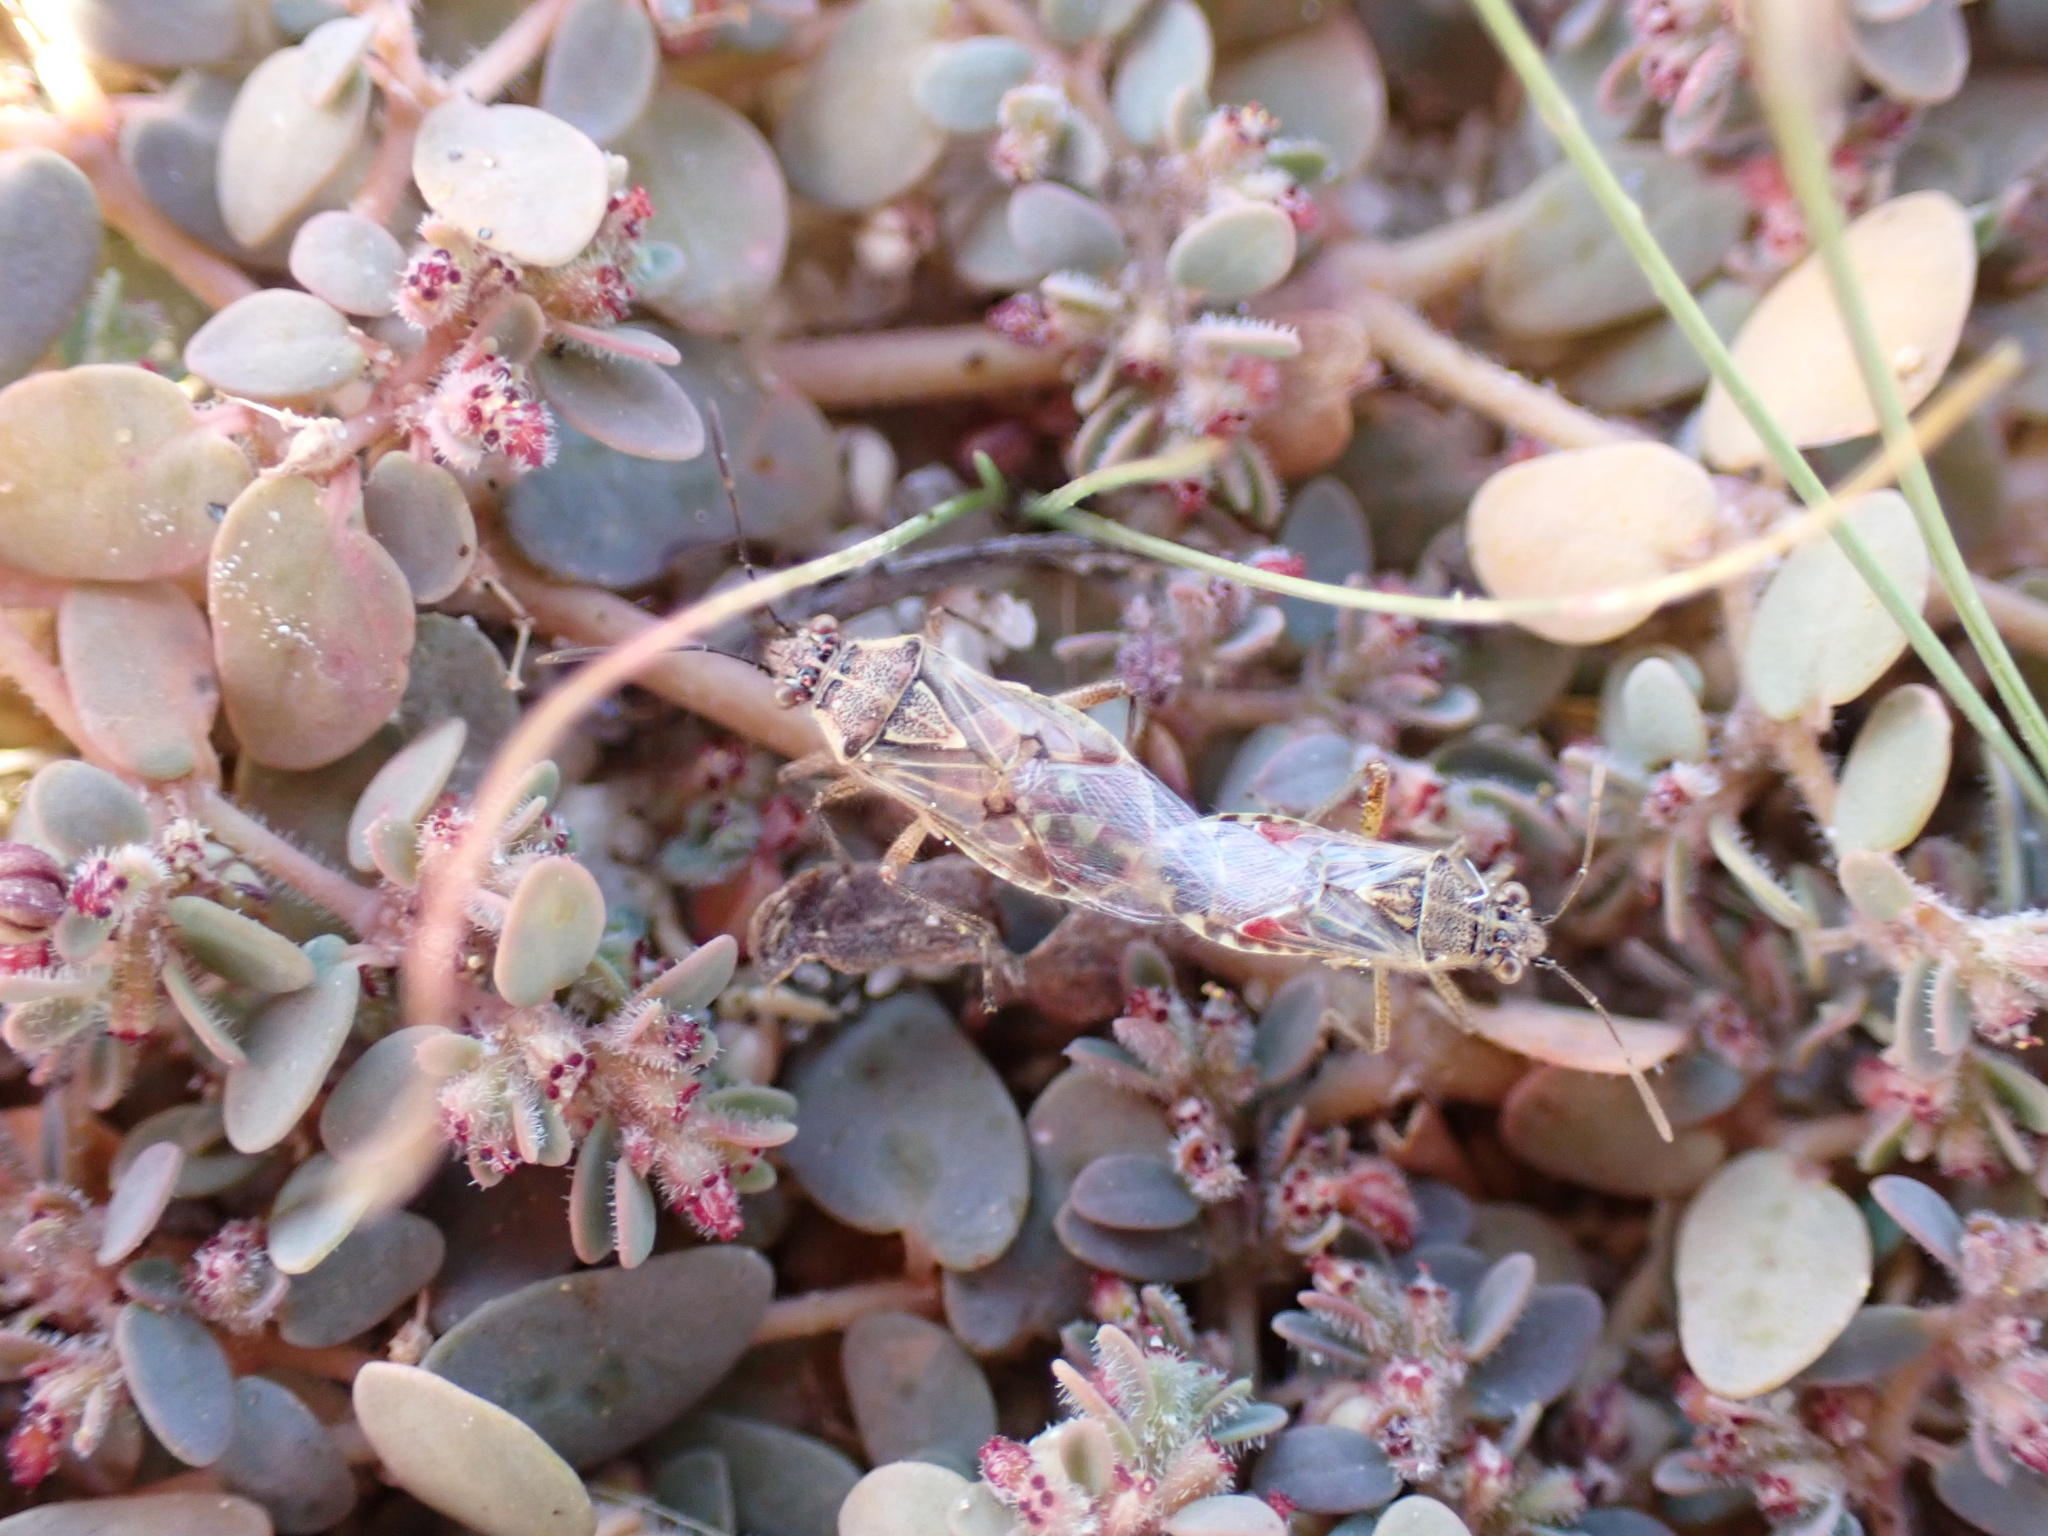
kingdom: Animalia
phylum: Arthropoda
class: Insecta
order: Hemiptera
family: Rhopalidae
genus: Liorhyssus
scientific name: Liorhyssus hyalinus
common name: Scentless plant bug
